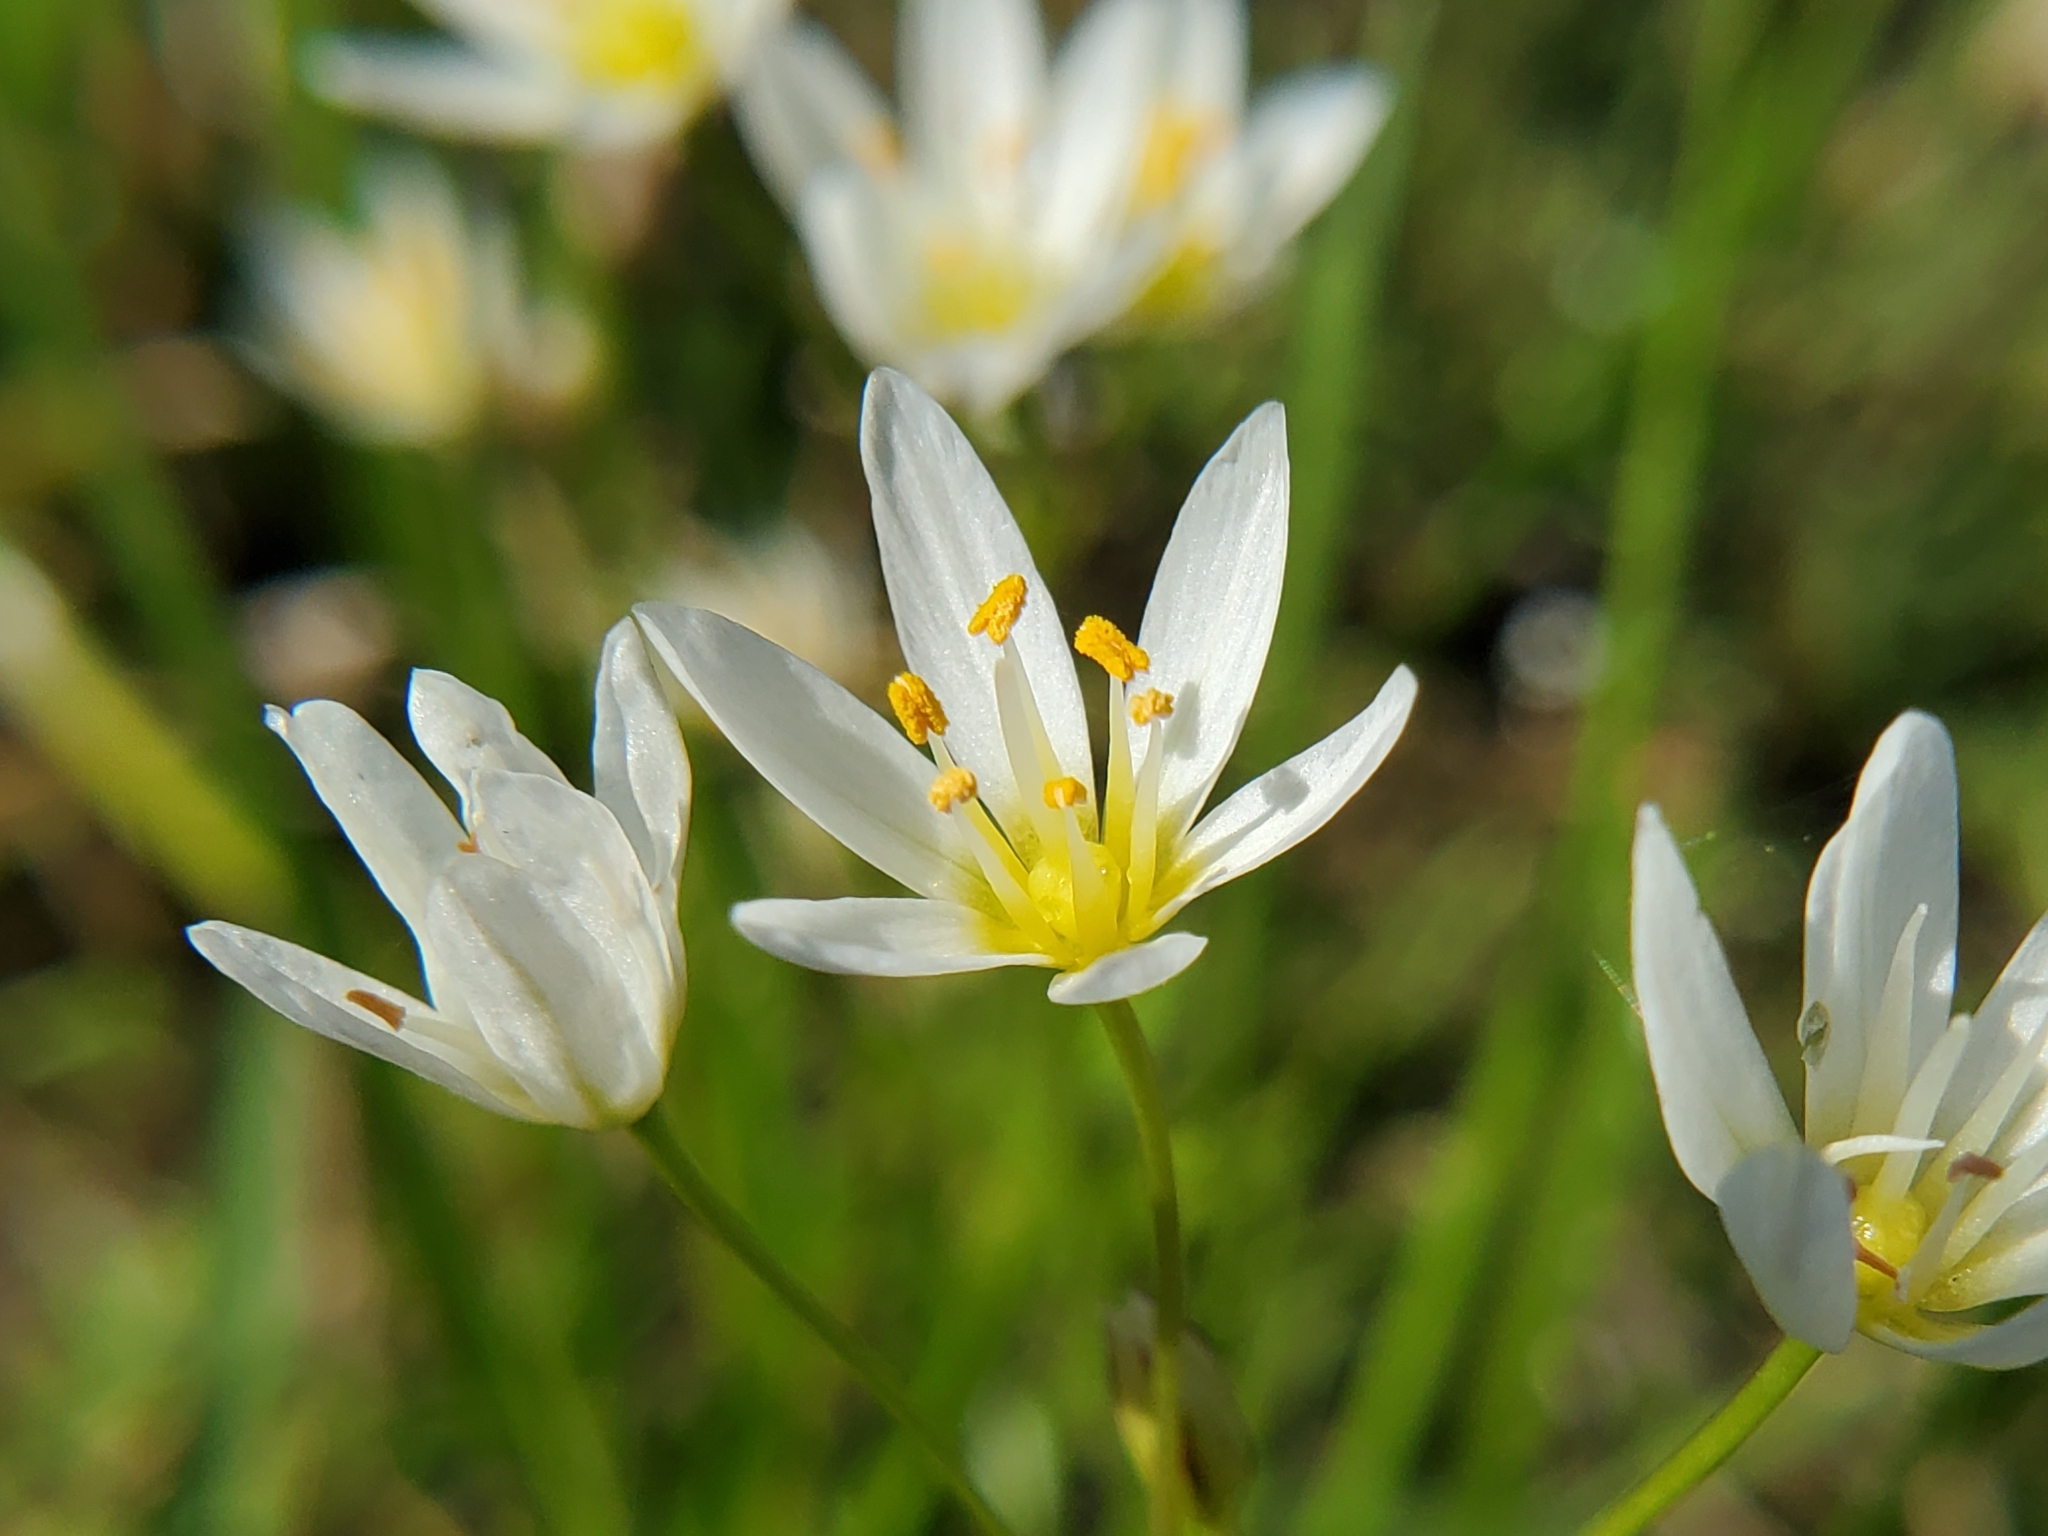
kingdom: Plantae
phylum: Tracheophyta
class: Liliopsida
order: Asparagales
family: Amaryllidaceae
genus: Nothoscordum
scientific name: Nothoscordum bivalve
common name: Crow-poison
